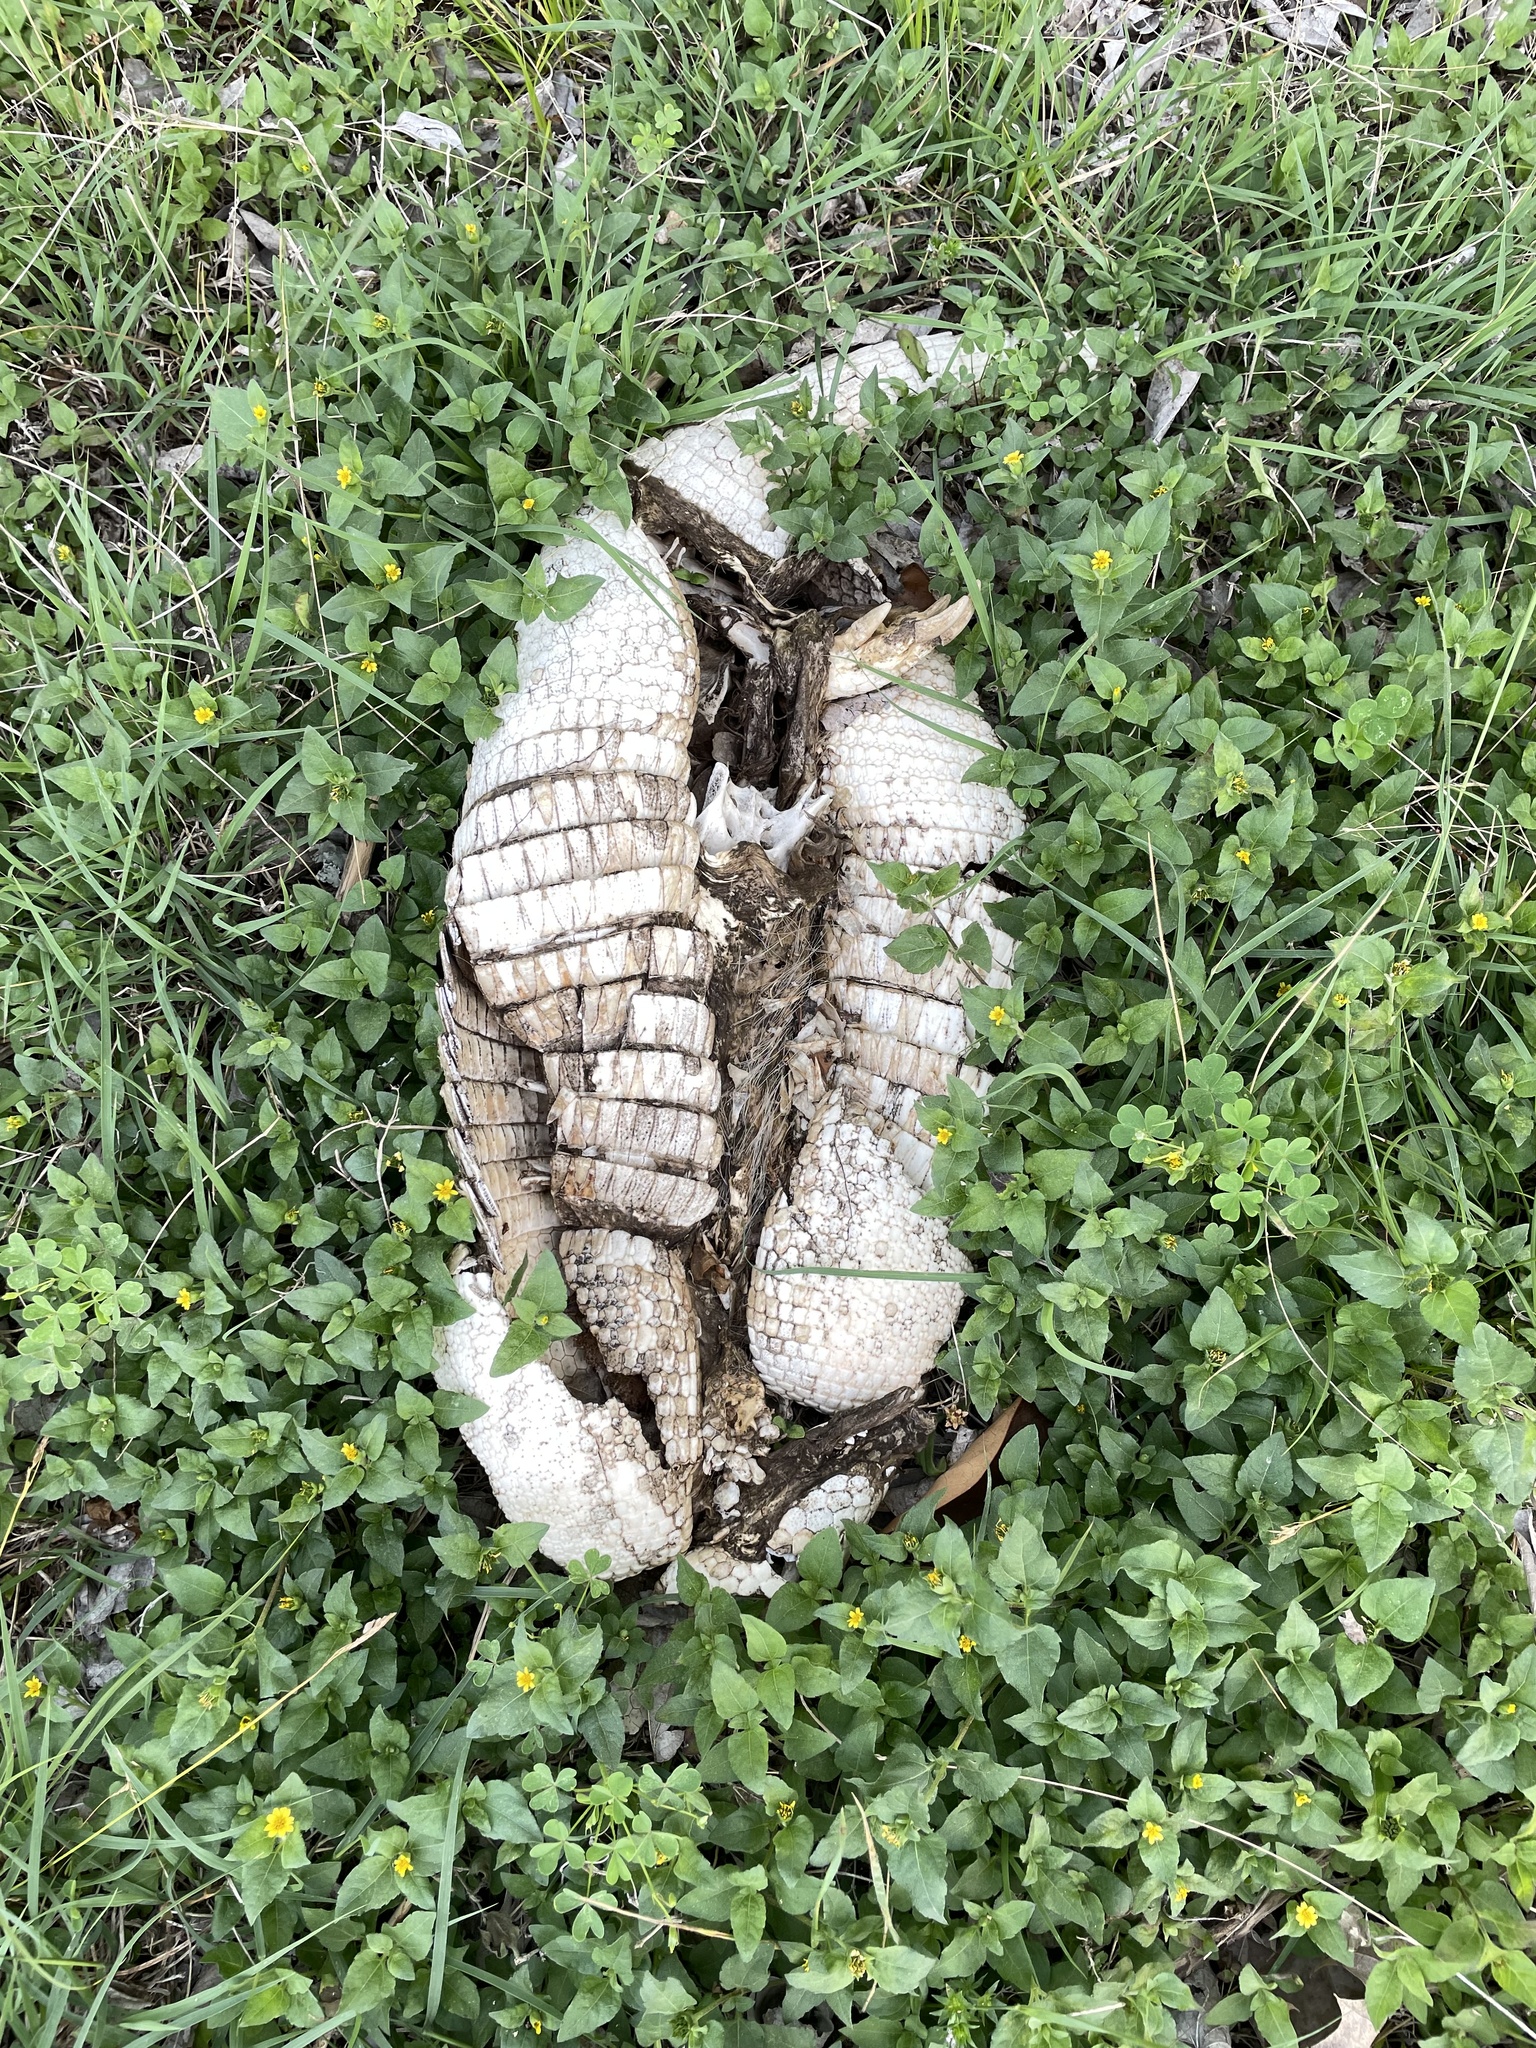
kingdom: Animalia
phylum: Chordata
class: Mammalia
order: Cingulata
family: Dasypodidae
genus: Dasypus
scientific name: Dasypus novemcinctus
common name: Nine-banded armadillo
